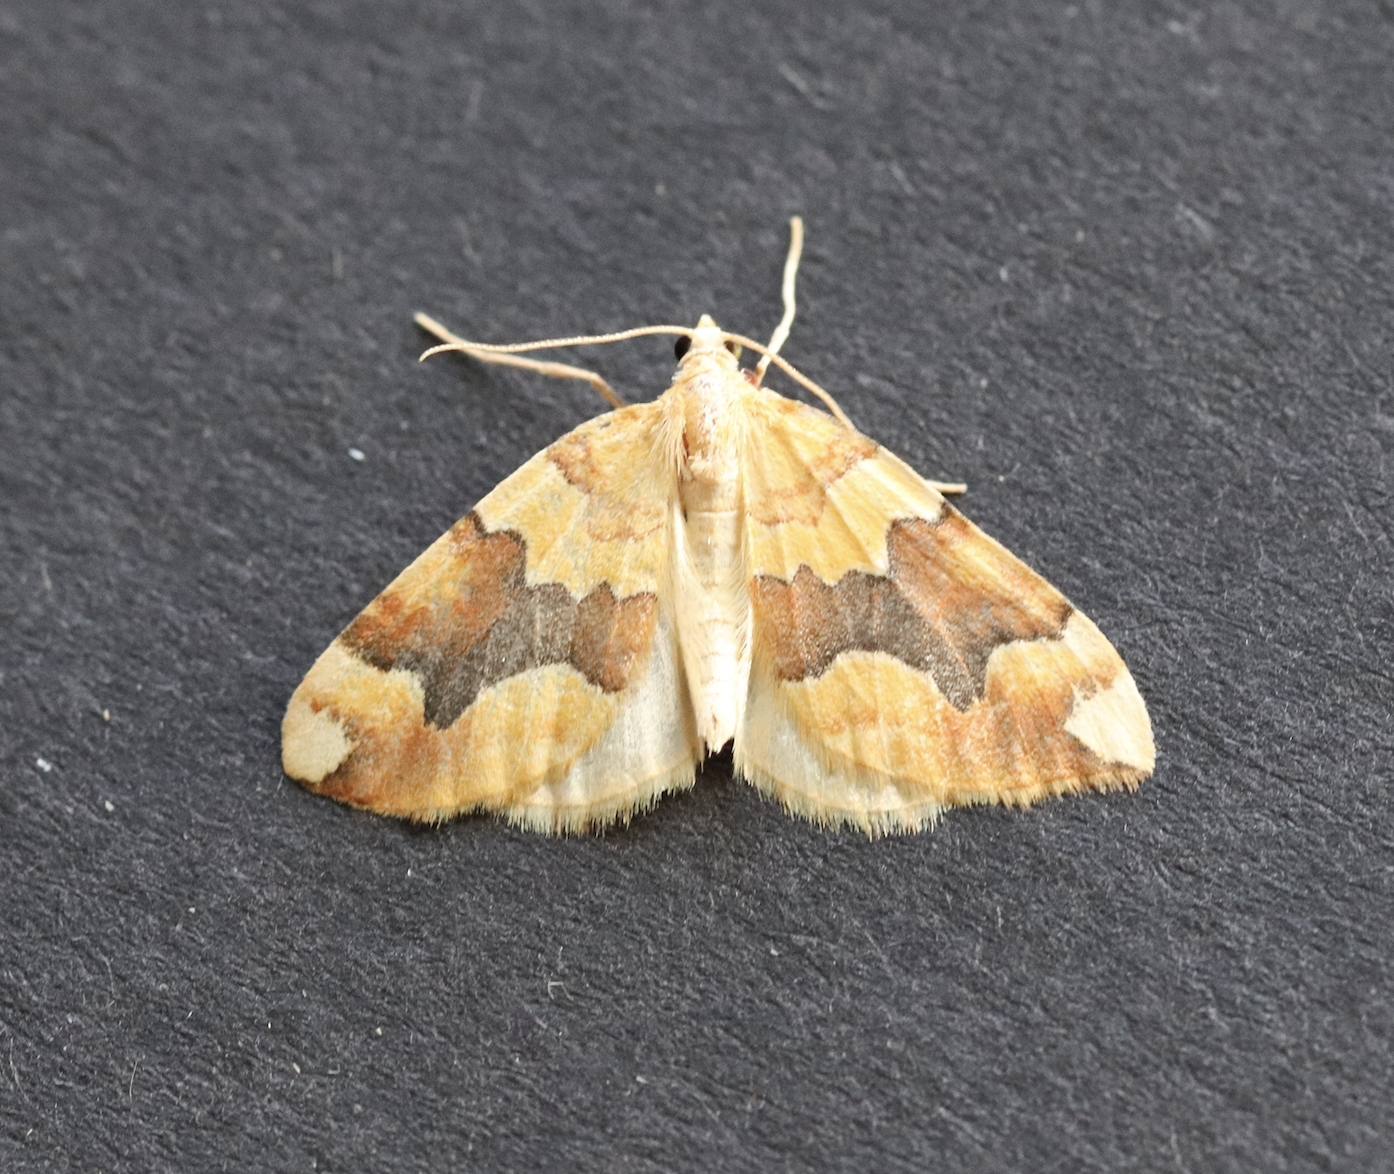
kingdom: Animalia
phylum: Arthropoda
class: Insecta
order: Lepidoptera
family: Geometridae
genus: Cidaria
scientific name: Cidaria fulvata
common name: Barred yellow
